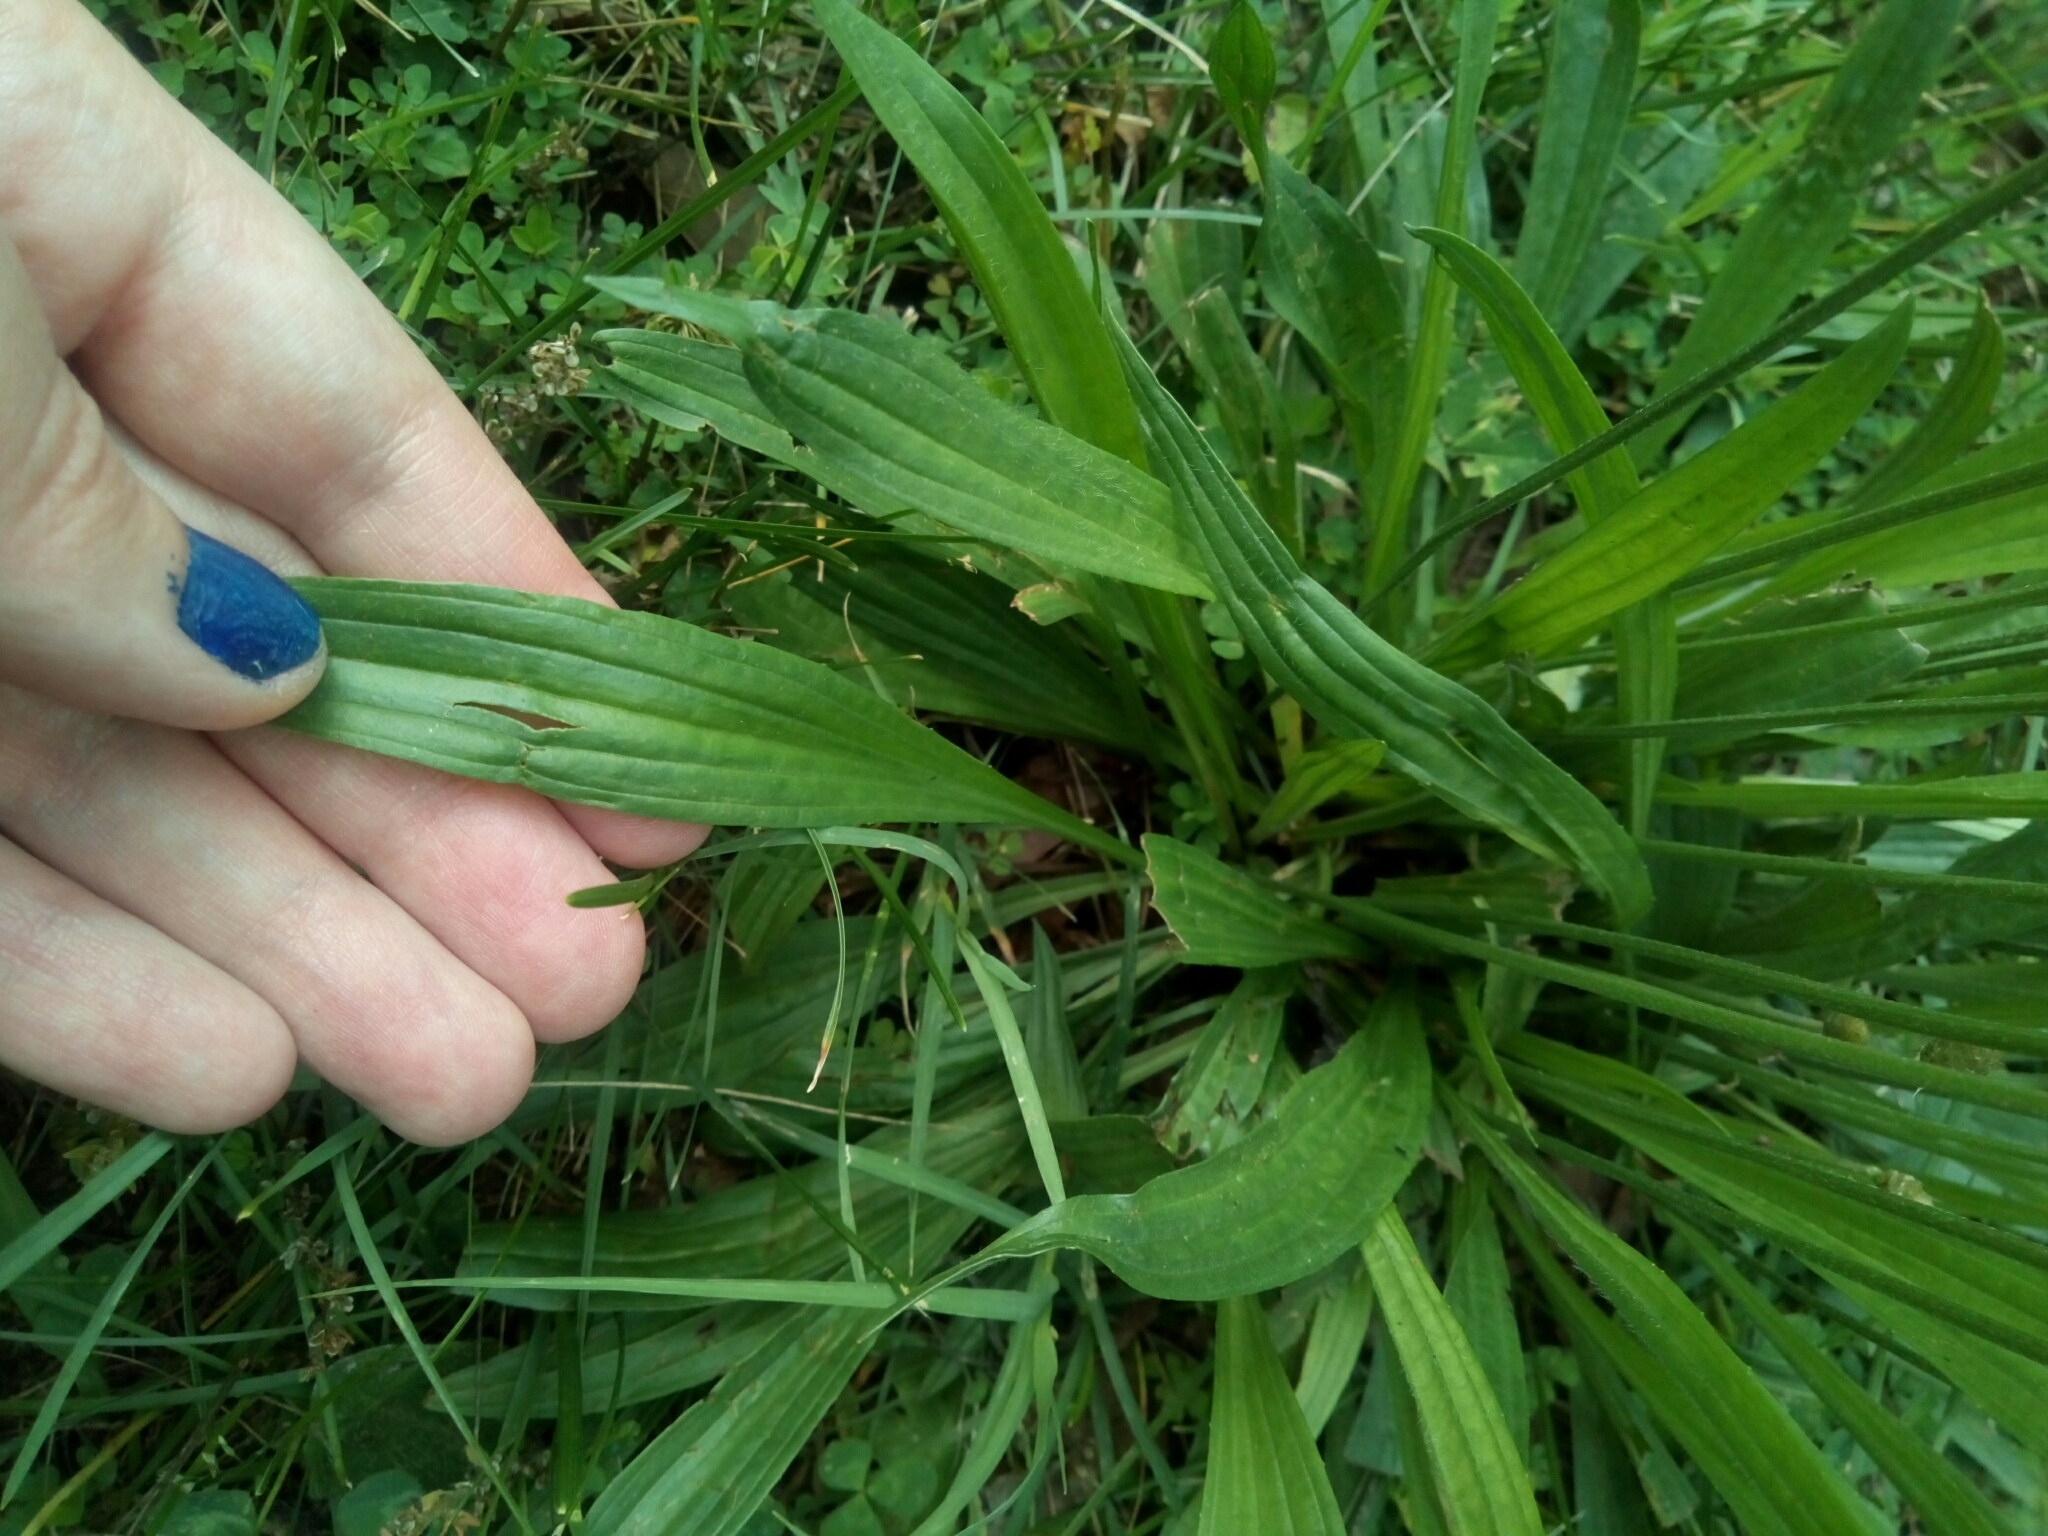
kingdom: Plantae
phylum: Tracheophyta
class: Magnoliopsida
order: Lamiales
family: Plantaginaceae
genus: Plantago
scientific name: Plantago lanceolata
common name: Ribwort plantain
